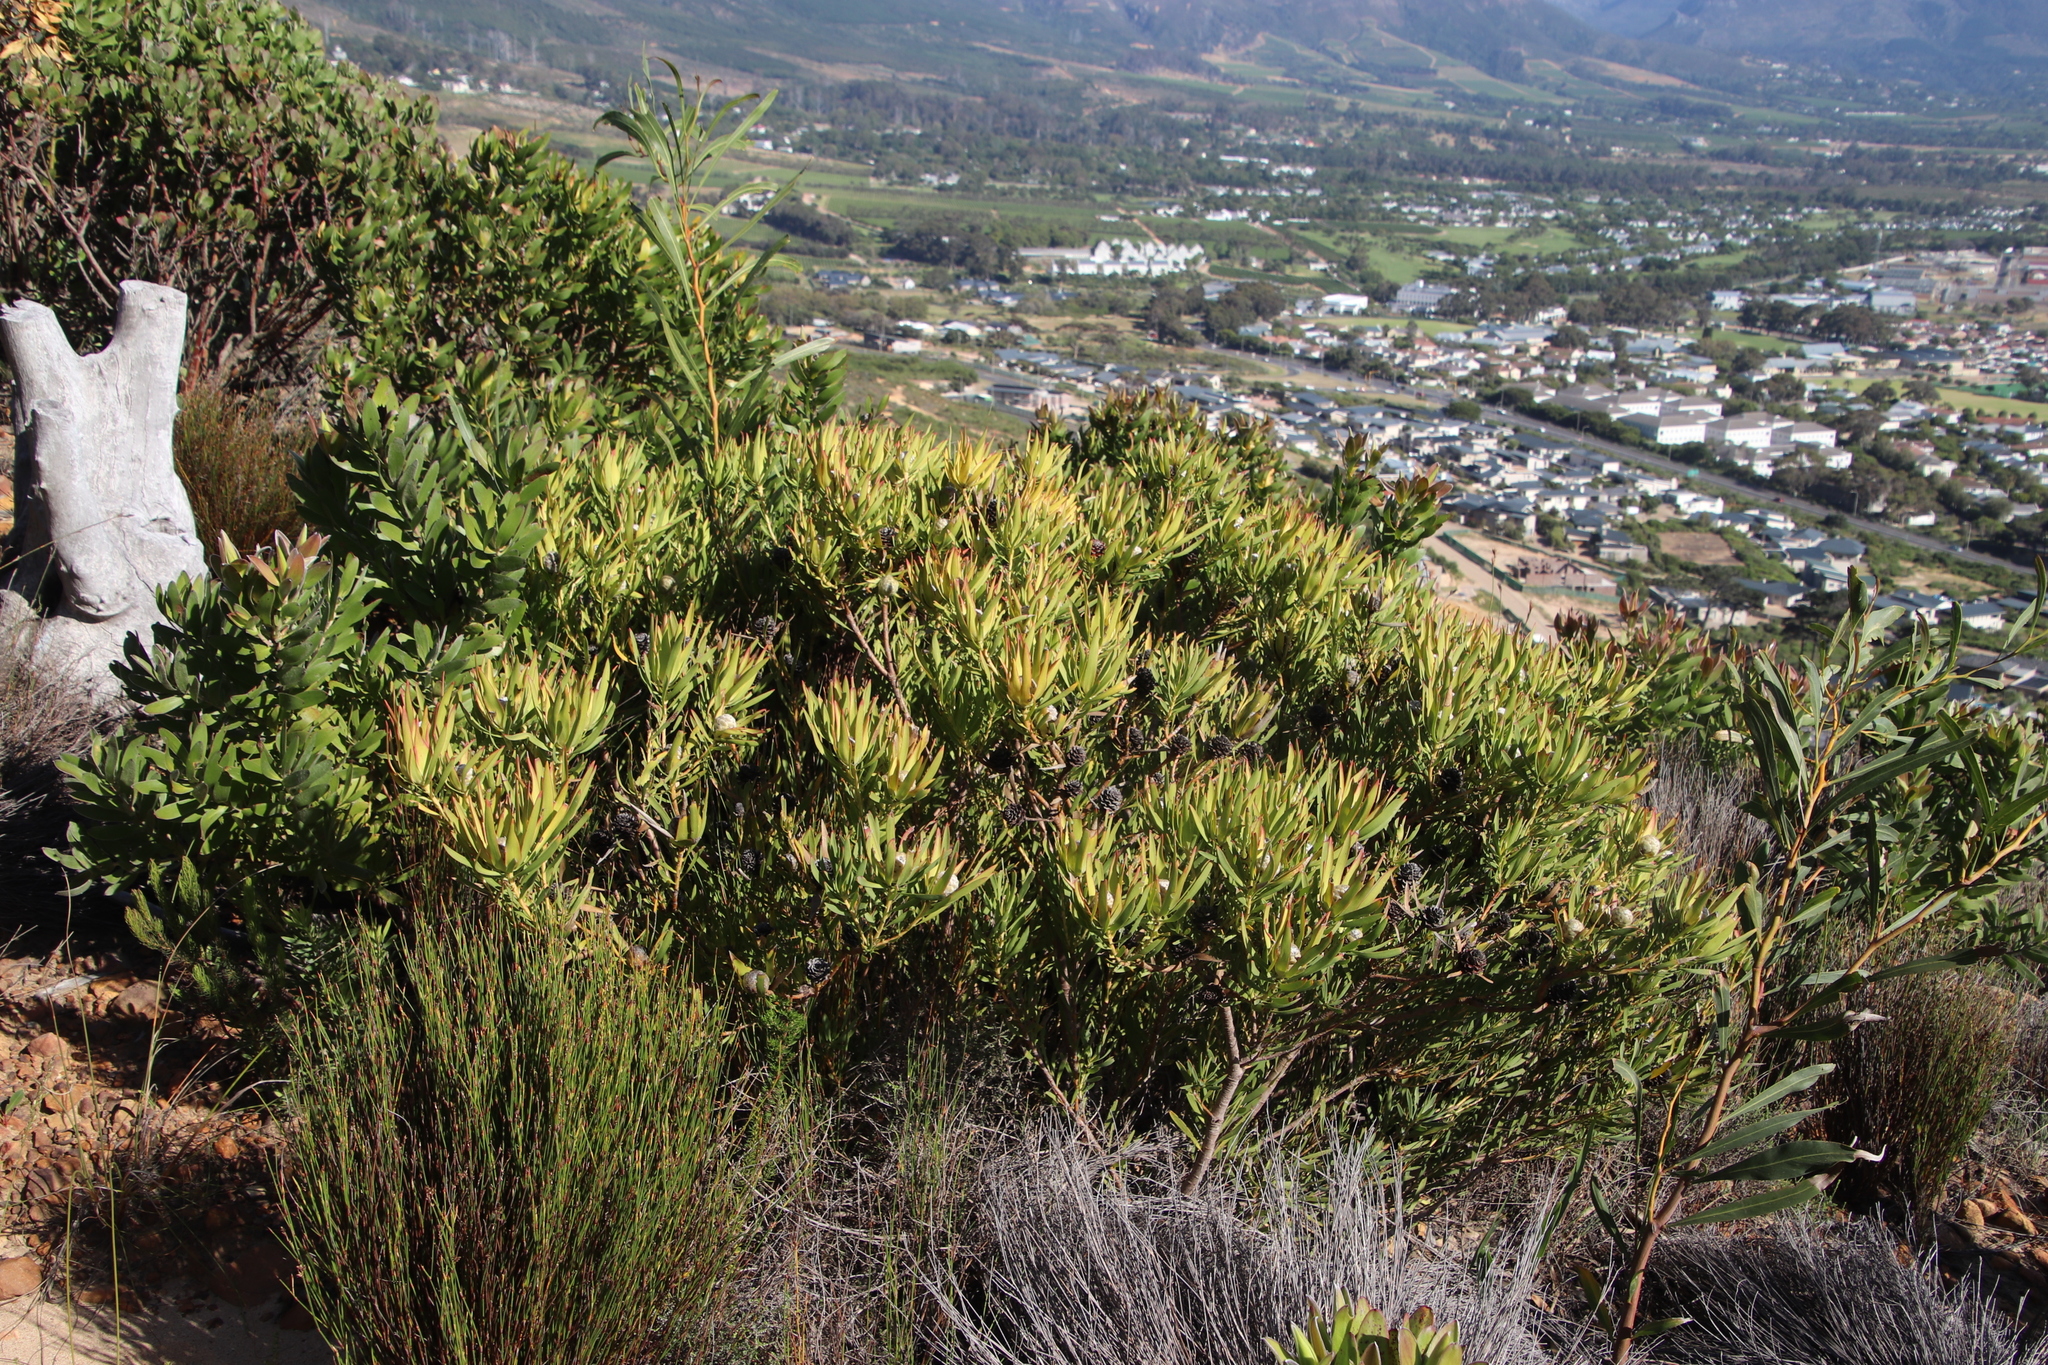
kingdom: Plantae
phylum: Tracheophyta
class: Magnoliopsida
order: Proteales
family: Proteaceae
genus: Leucadendron
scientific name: Leucadendron salignum
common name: Common sunshine conebush
